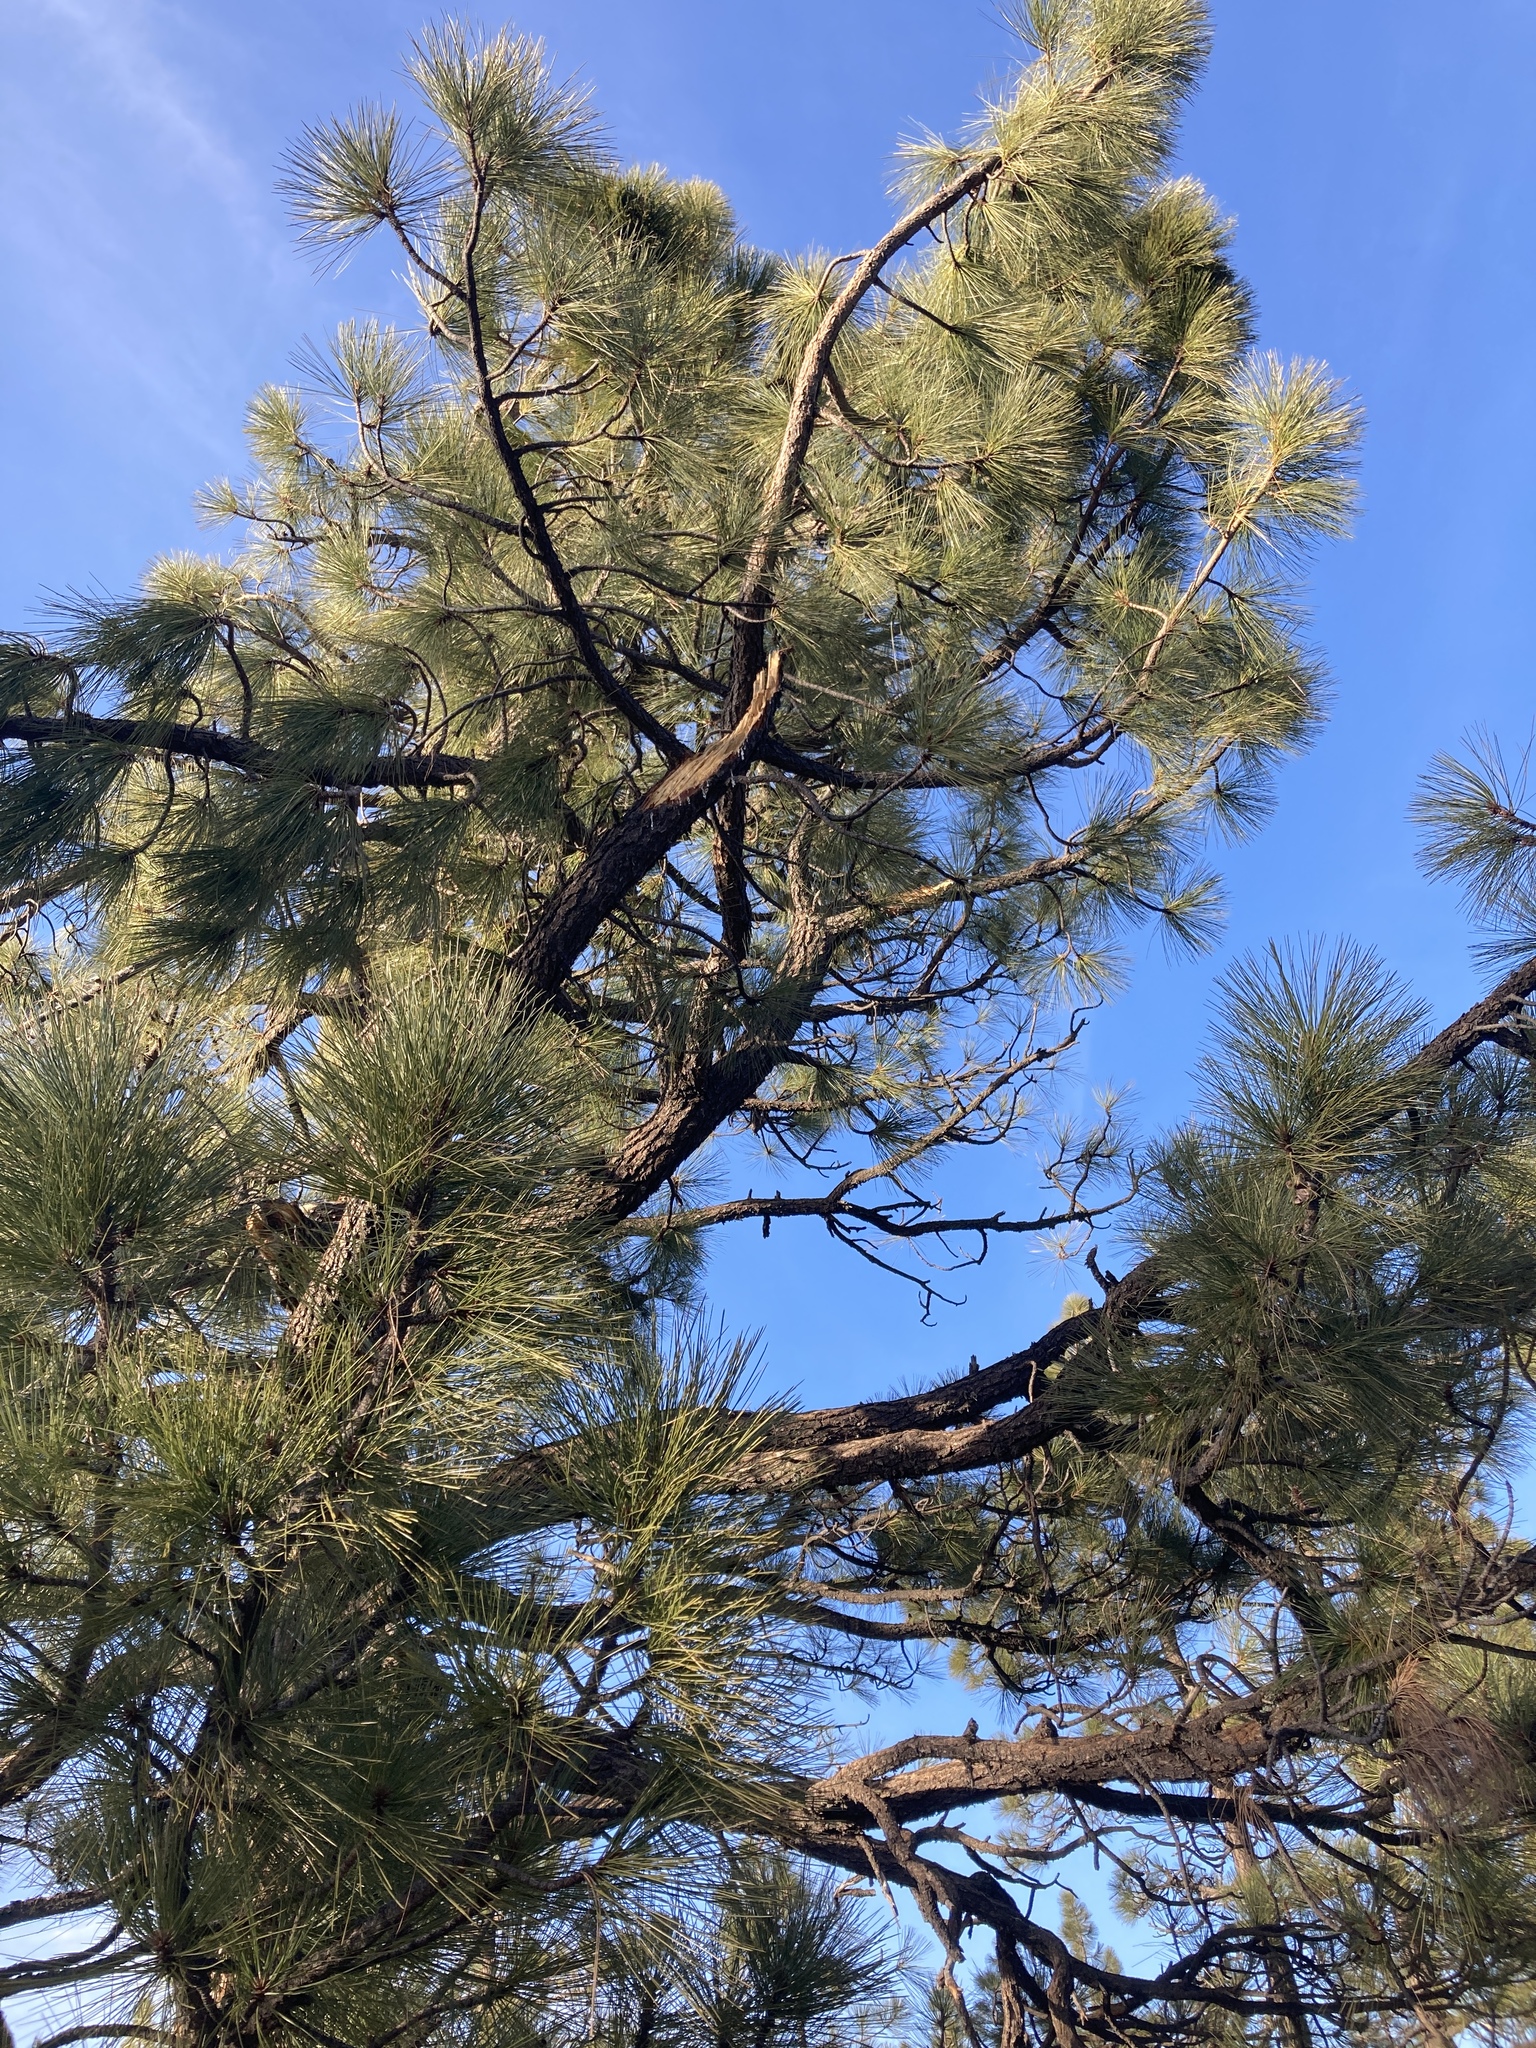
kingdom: Plantae
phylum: Tracheophyta
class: Pinopsida
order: Pinales
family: Pinaceae
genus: Pinus
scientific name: Pinus coulteri
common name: Coulter pine
